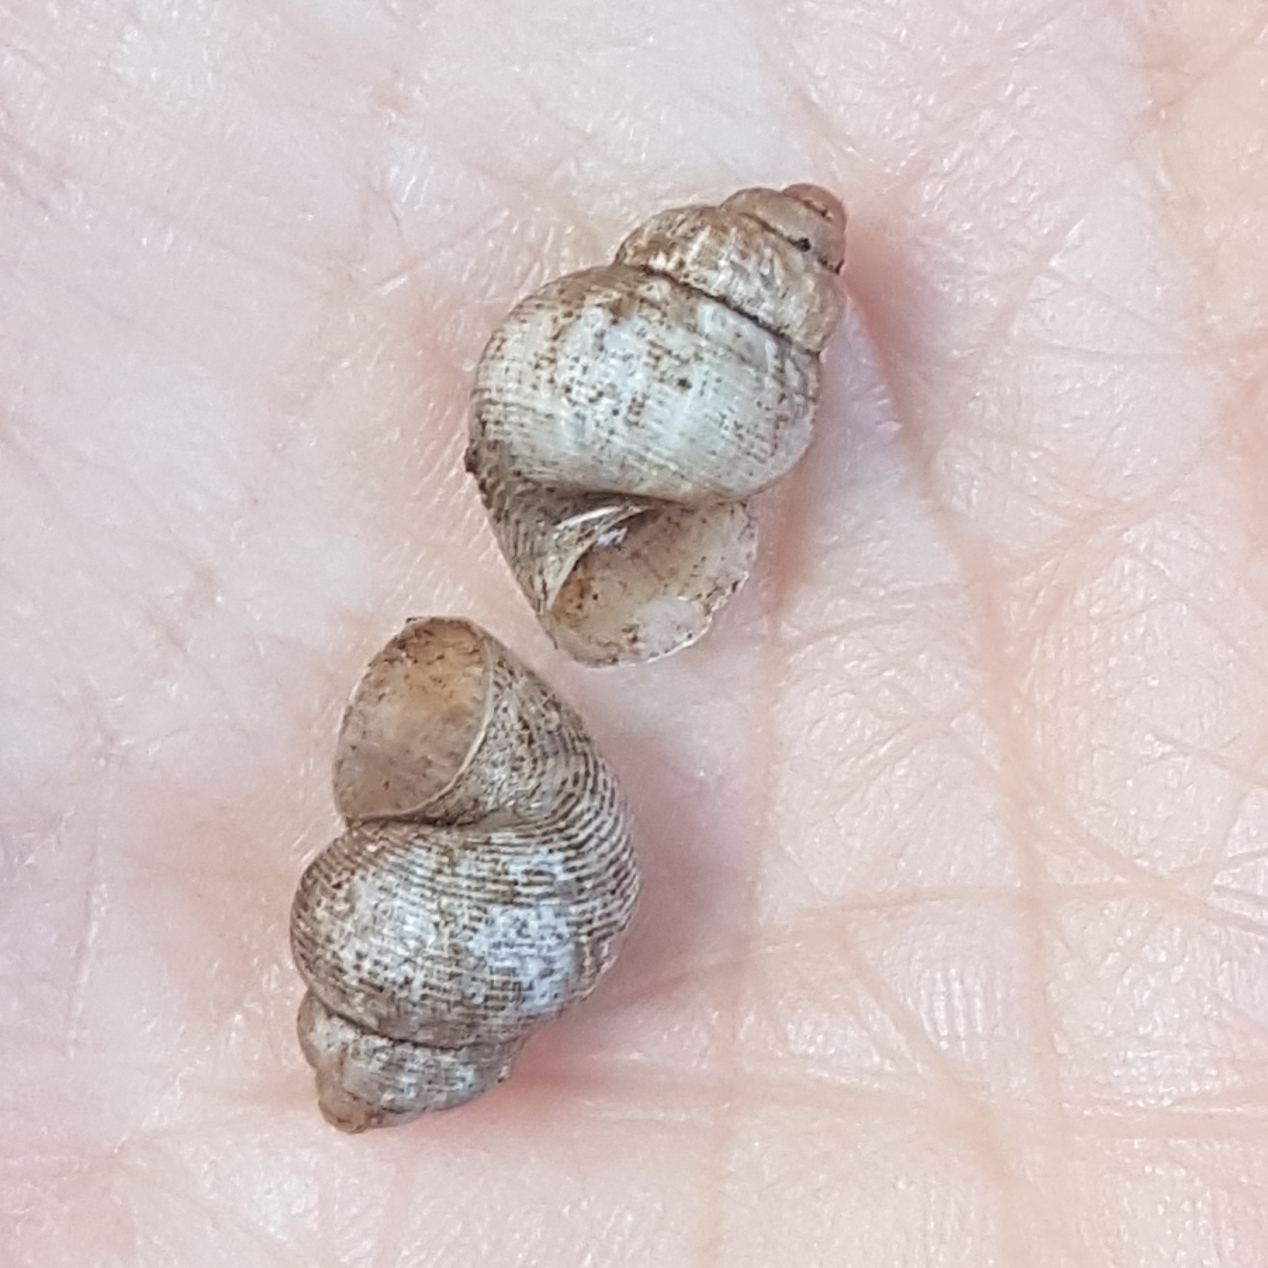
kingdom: Animalia
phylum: Mollusca
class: Gastropoda
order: Littorinimorpha
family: Pomatiidae
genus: Pomatias
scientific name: Pomatias elegans
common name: Red-mouthed snail
